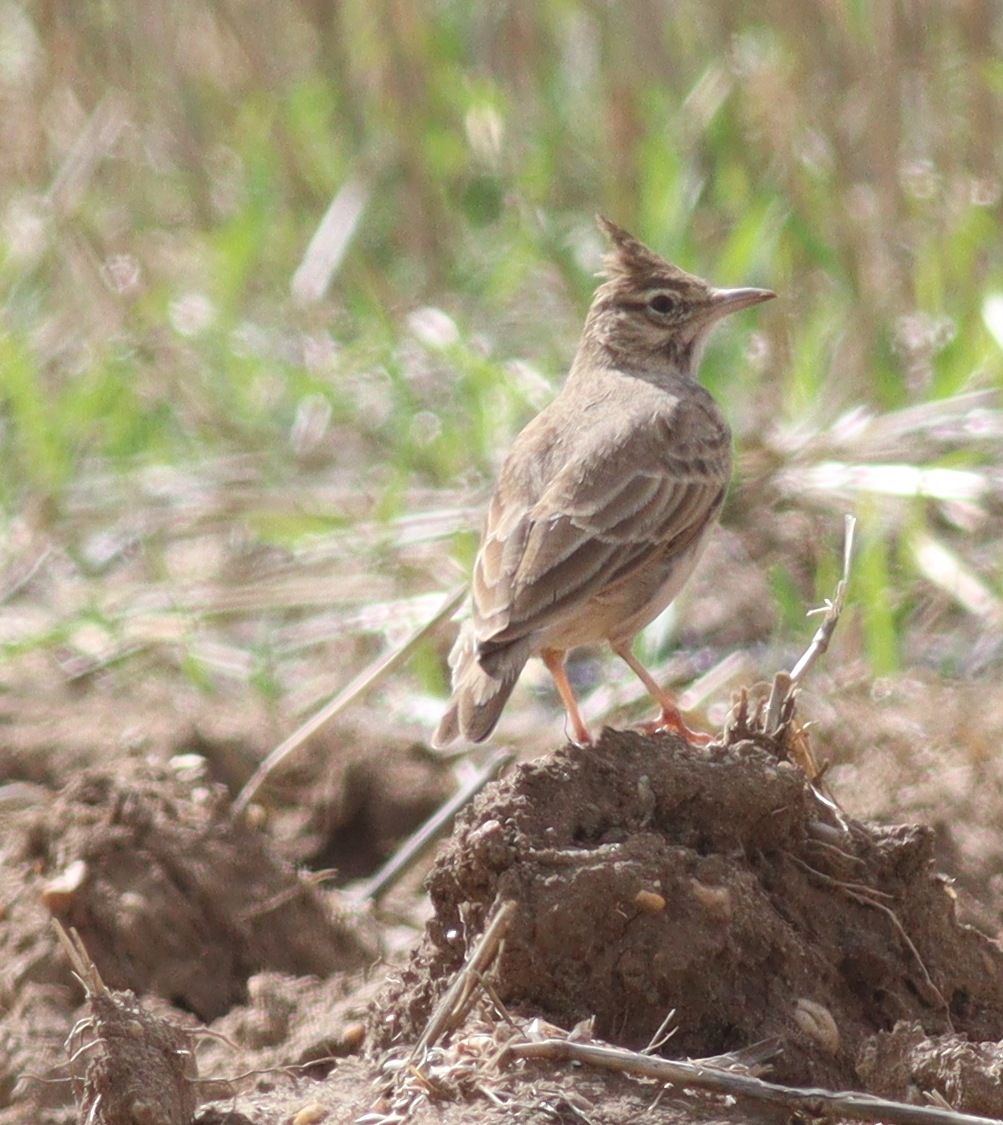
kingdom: Animalia
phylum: Chordata
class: Aves
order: Passeriformes
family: Alaudidae
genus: Galerida
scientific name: Galerida cristata
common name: Crested lark
